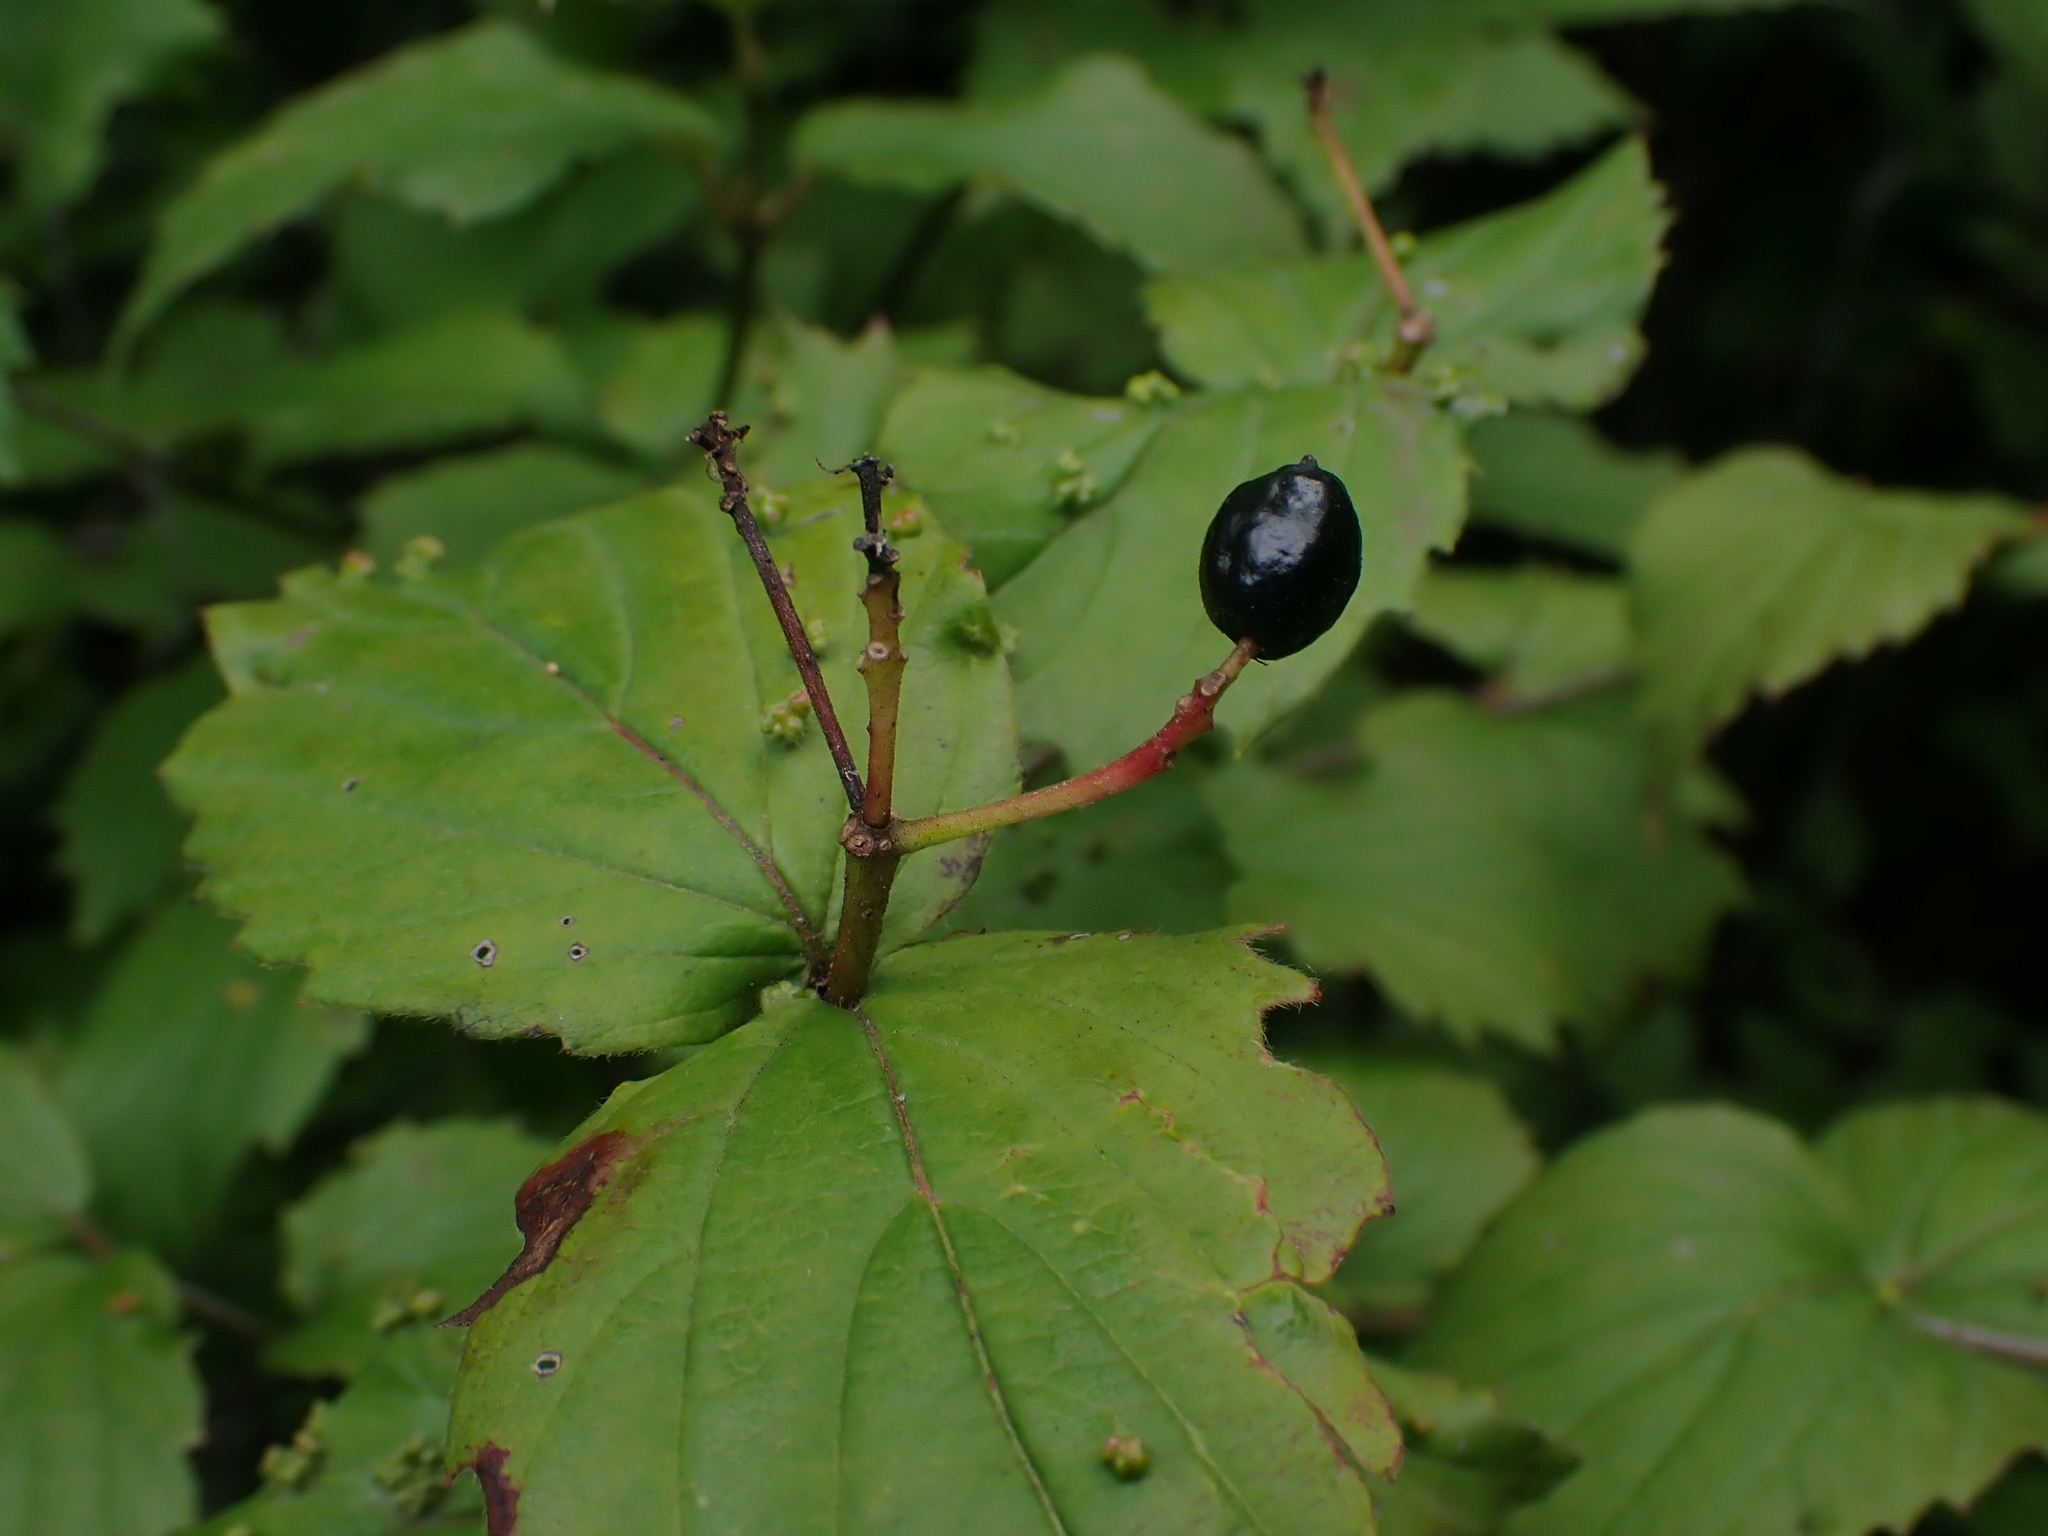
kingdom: Plantae
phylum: Tracheophyta
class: Magnoliopsida
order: Dipsacales
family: Viburnaceae
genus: Viburnum
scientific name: Viburnum rafinesqueanum
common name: Downy arrow-wood
